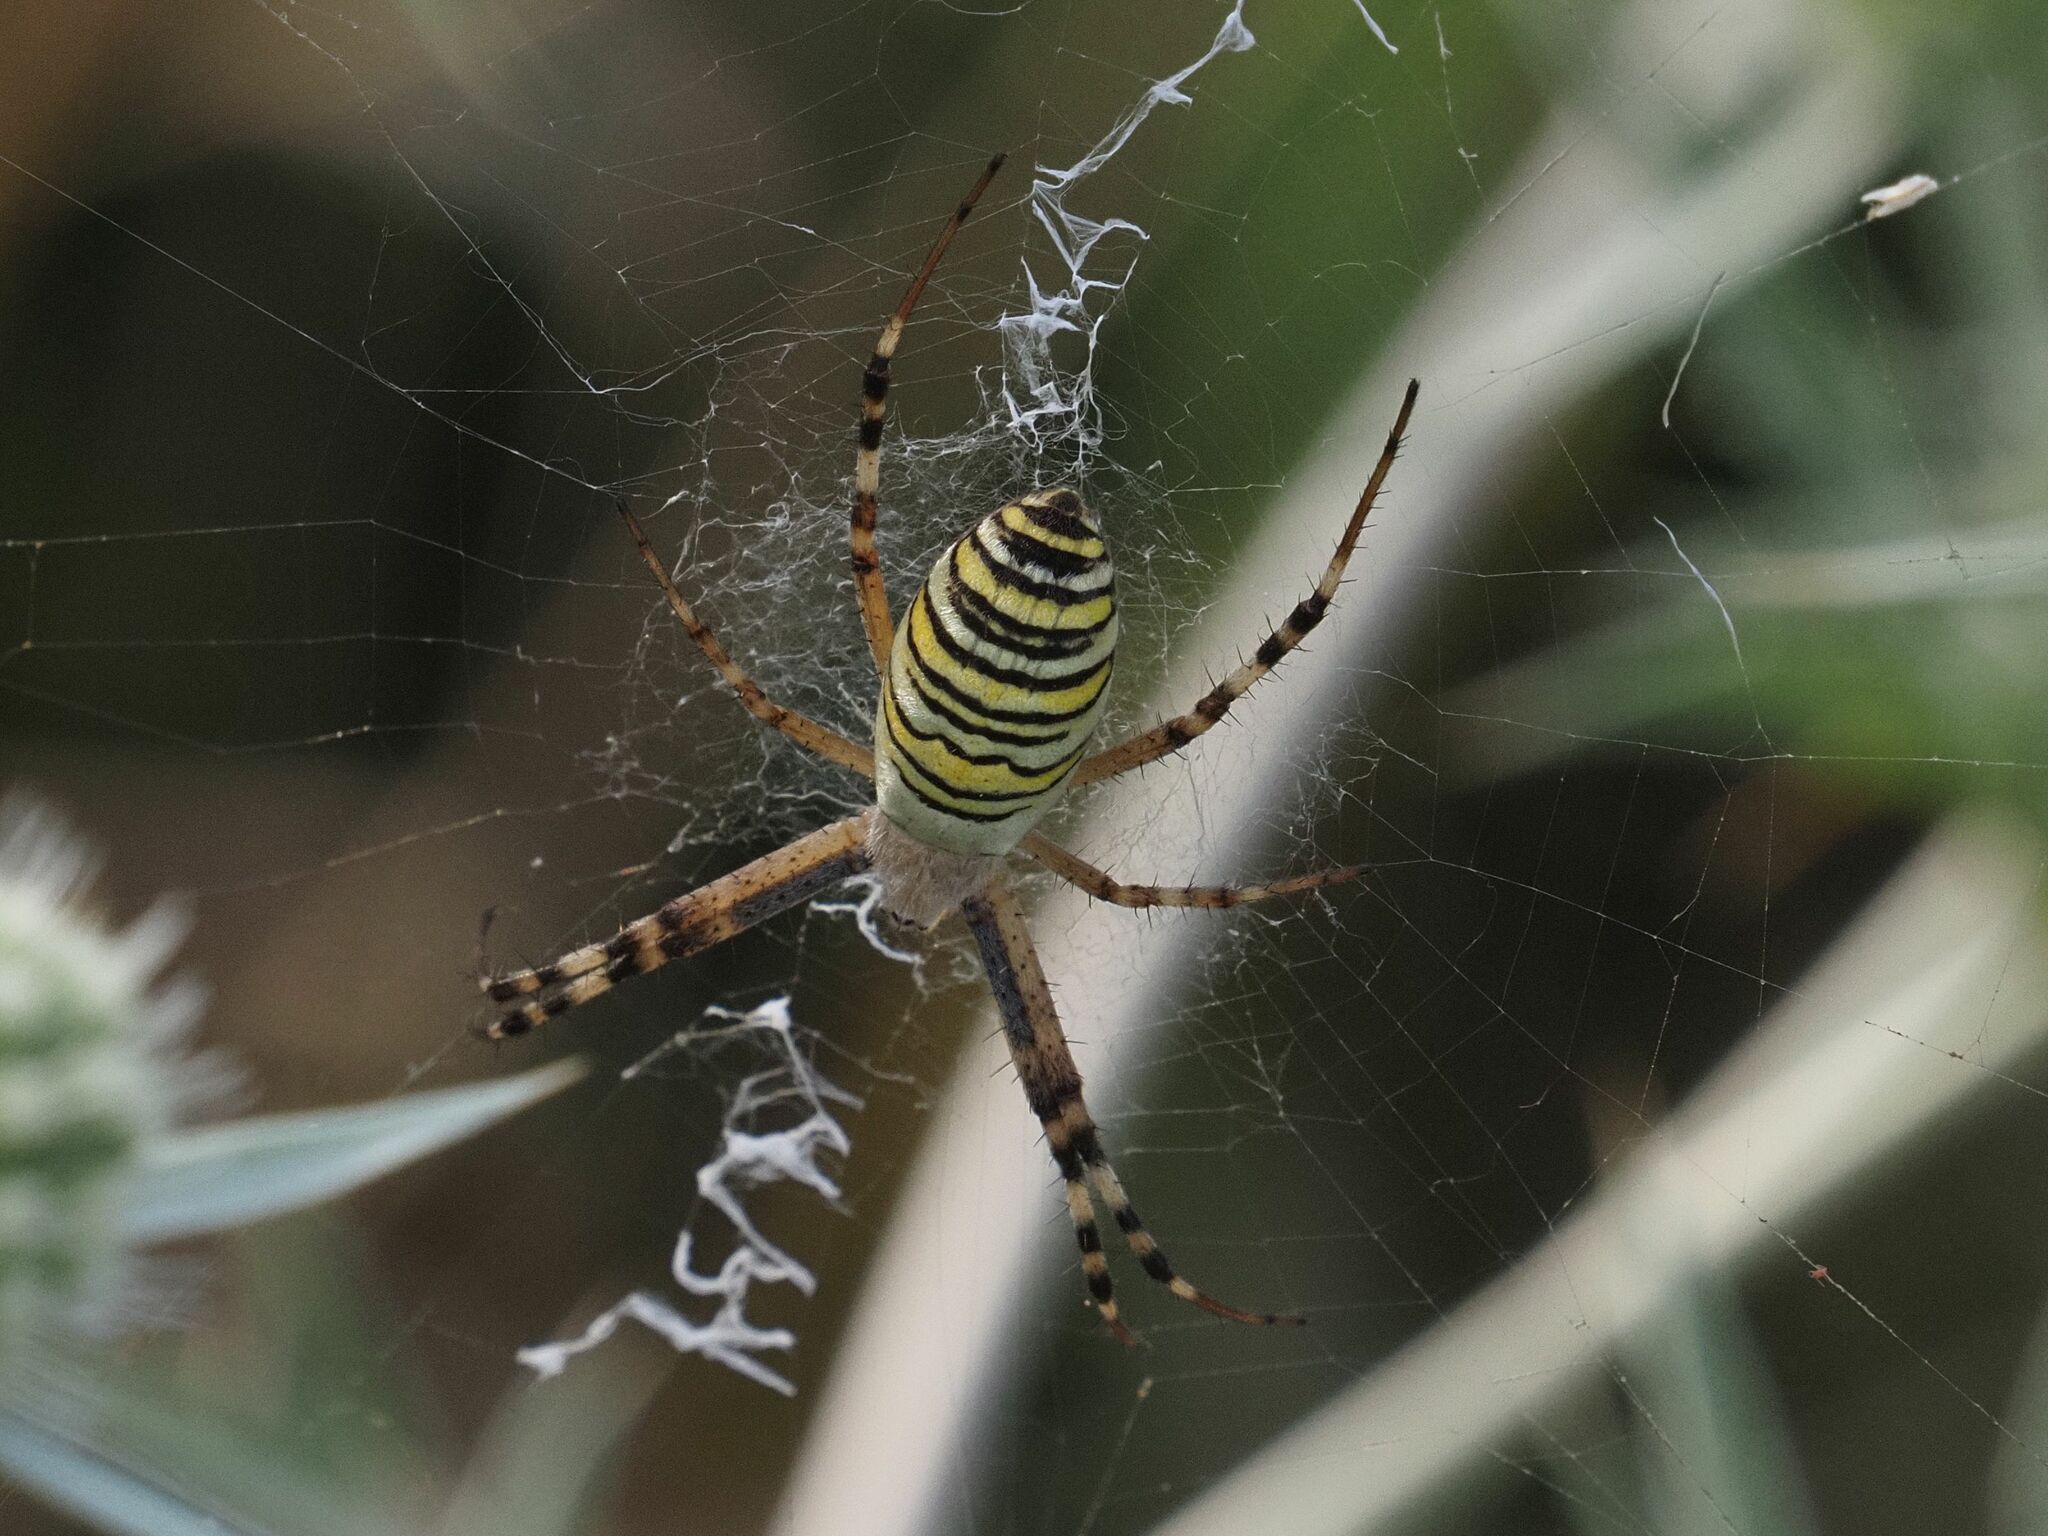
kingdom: Animalia
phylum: Arthropoda
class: Arachnida
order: Araneae
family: Araneidae
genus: Argiope
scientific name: Argiope bruennichi
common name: Wasp spider
